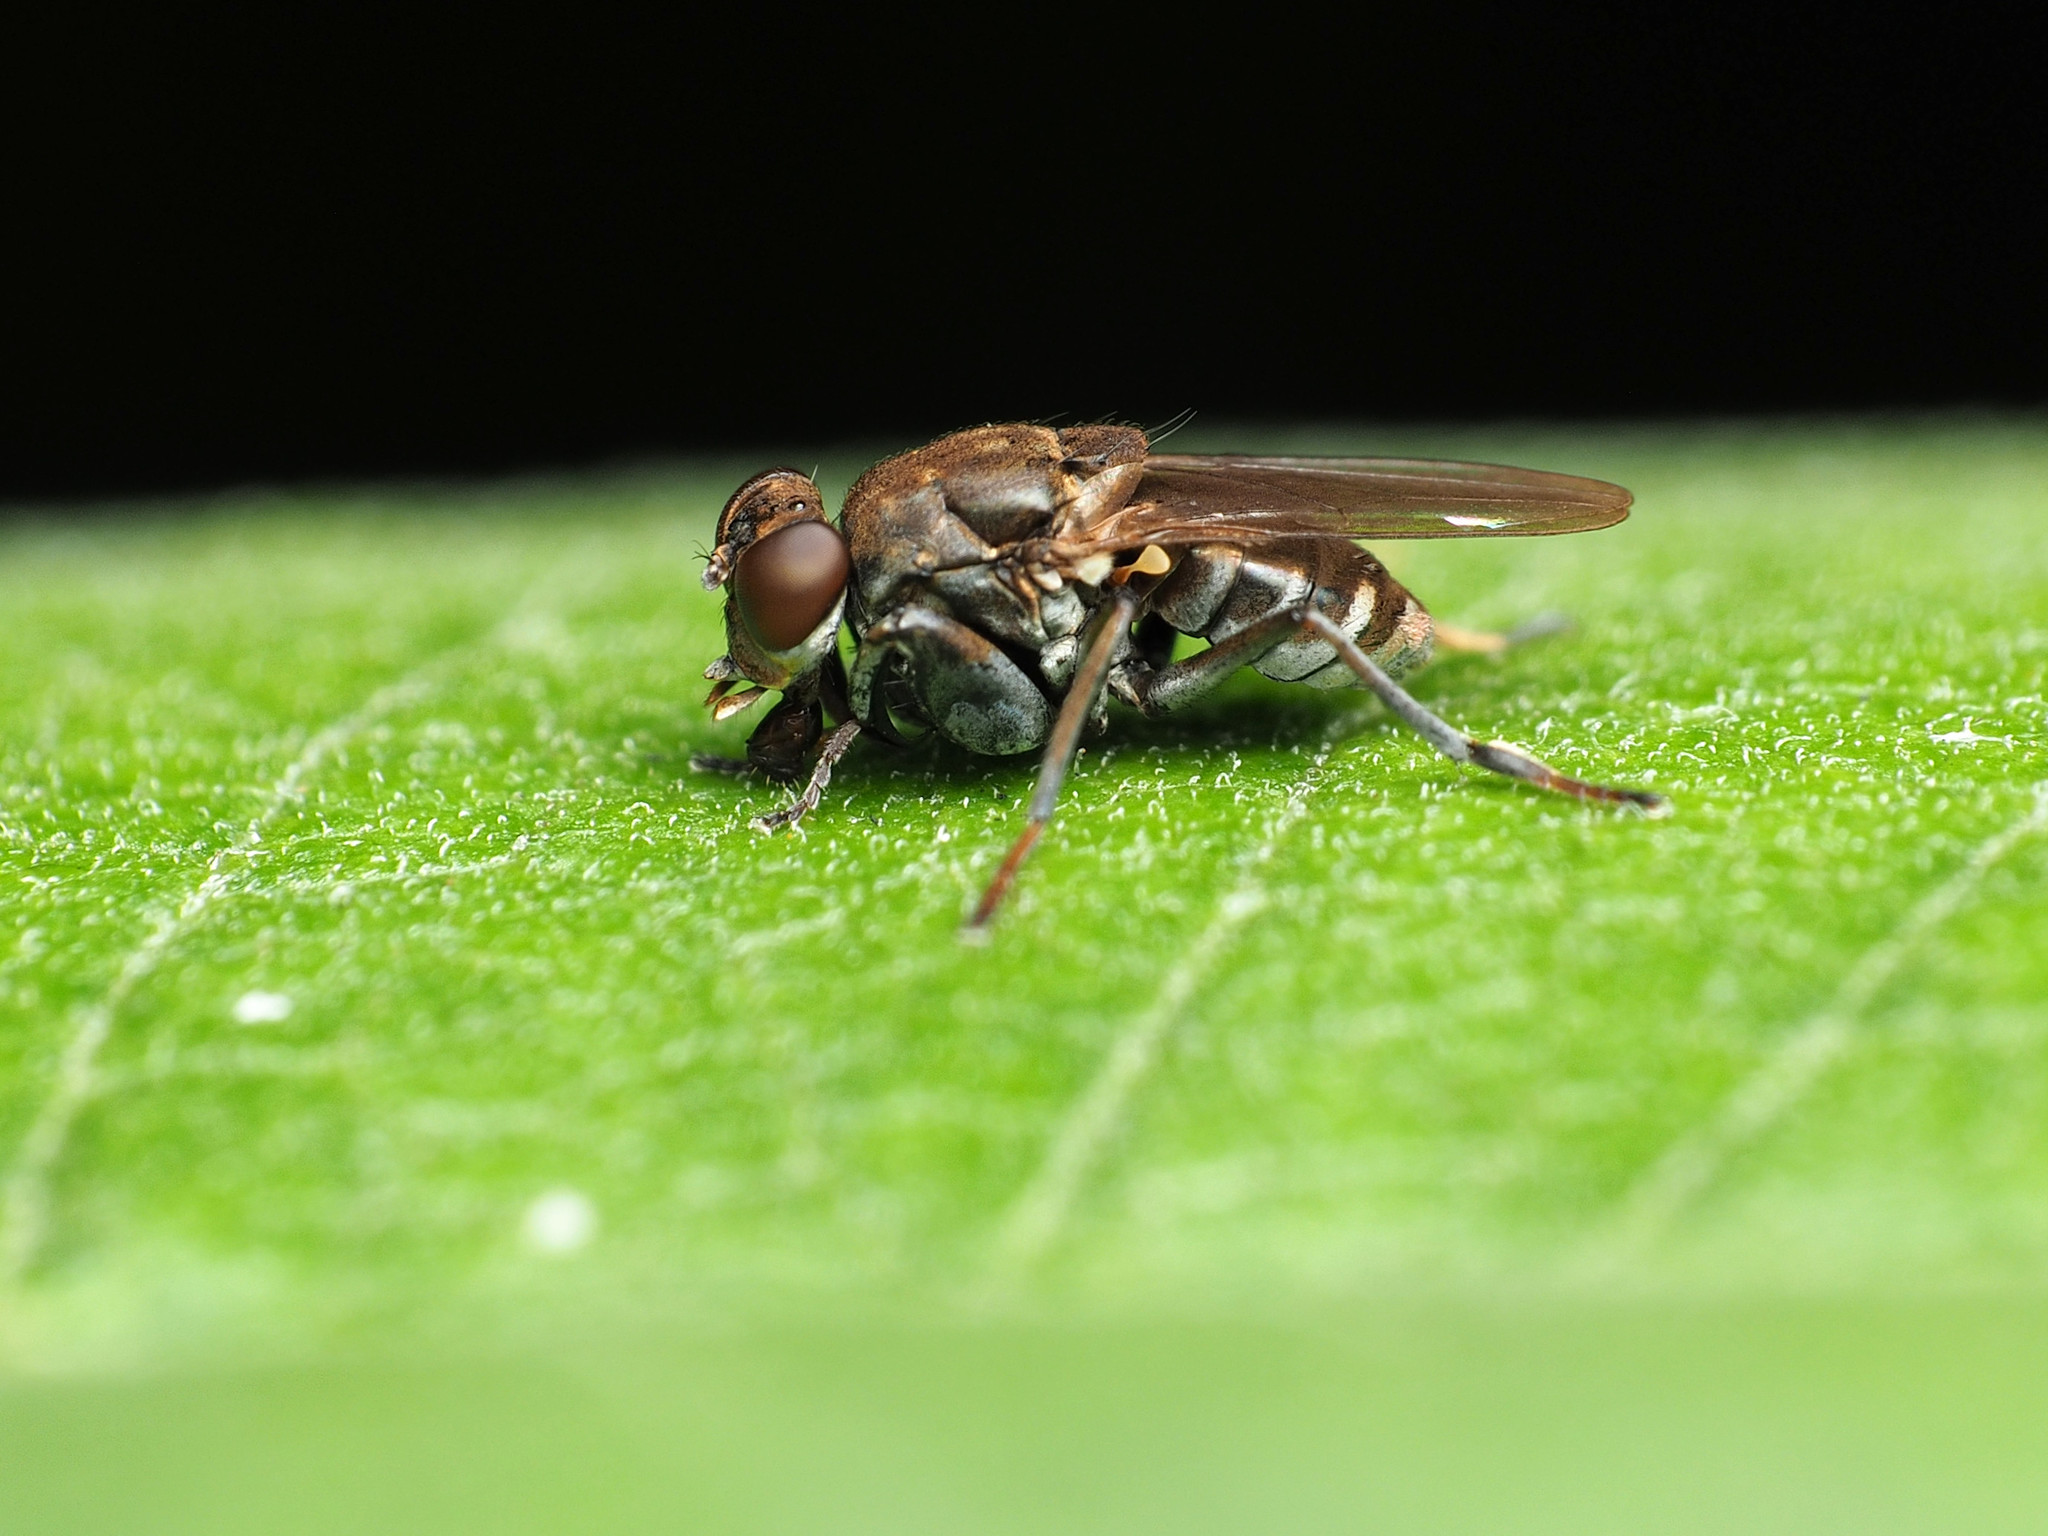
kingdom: Animalia
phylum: Arthropoda
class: Insecta
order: Diptera
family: Ephydridae
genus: Ochthera
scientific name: Ochthera tuberculata
